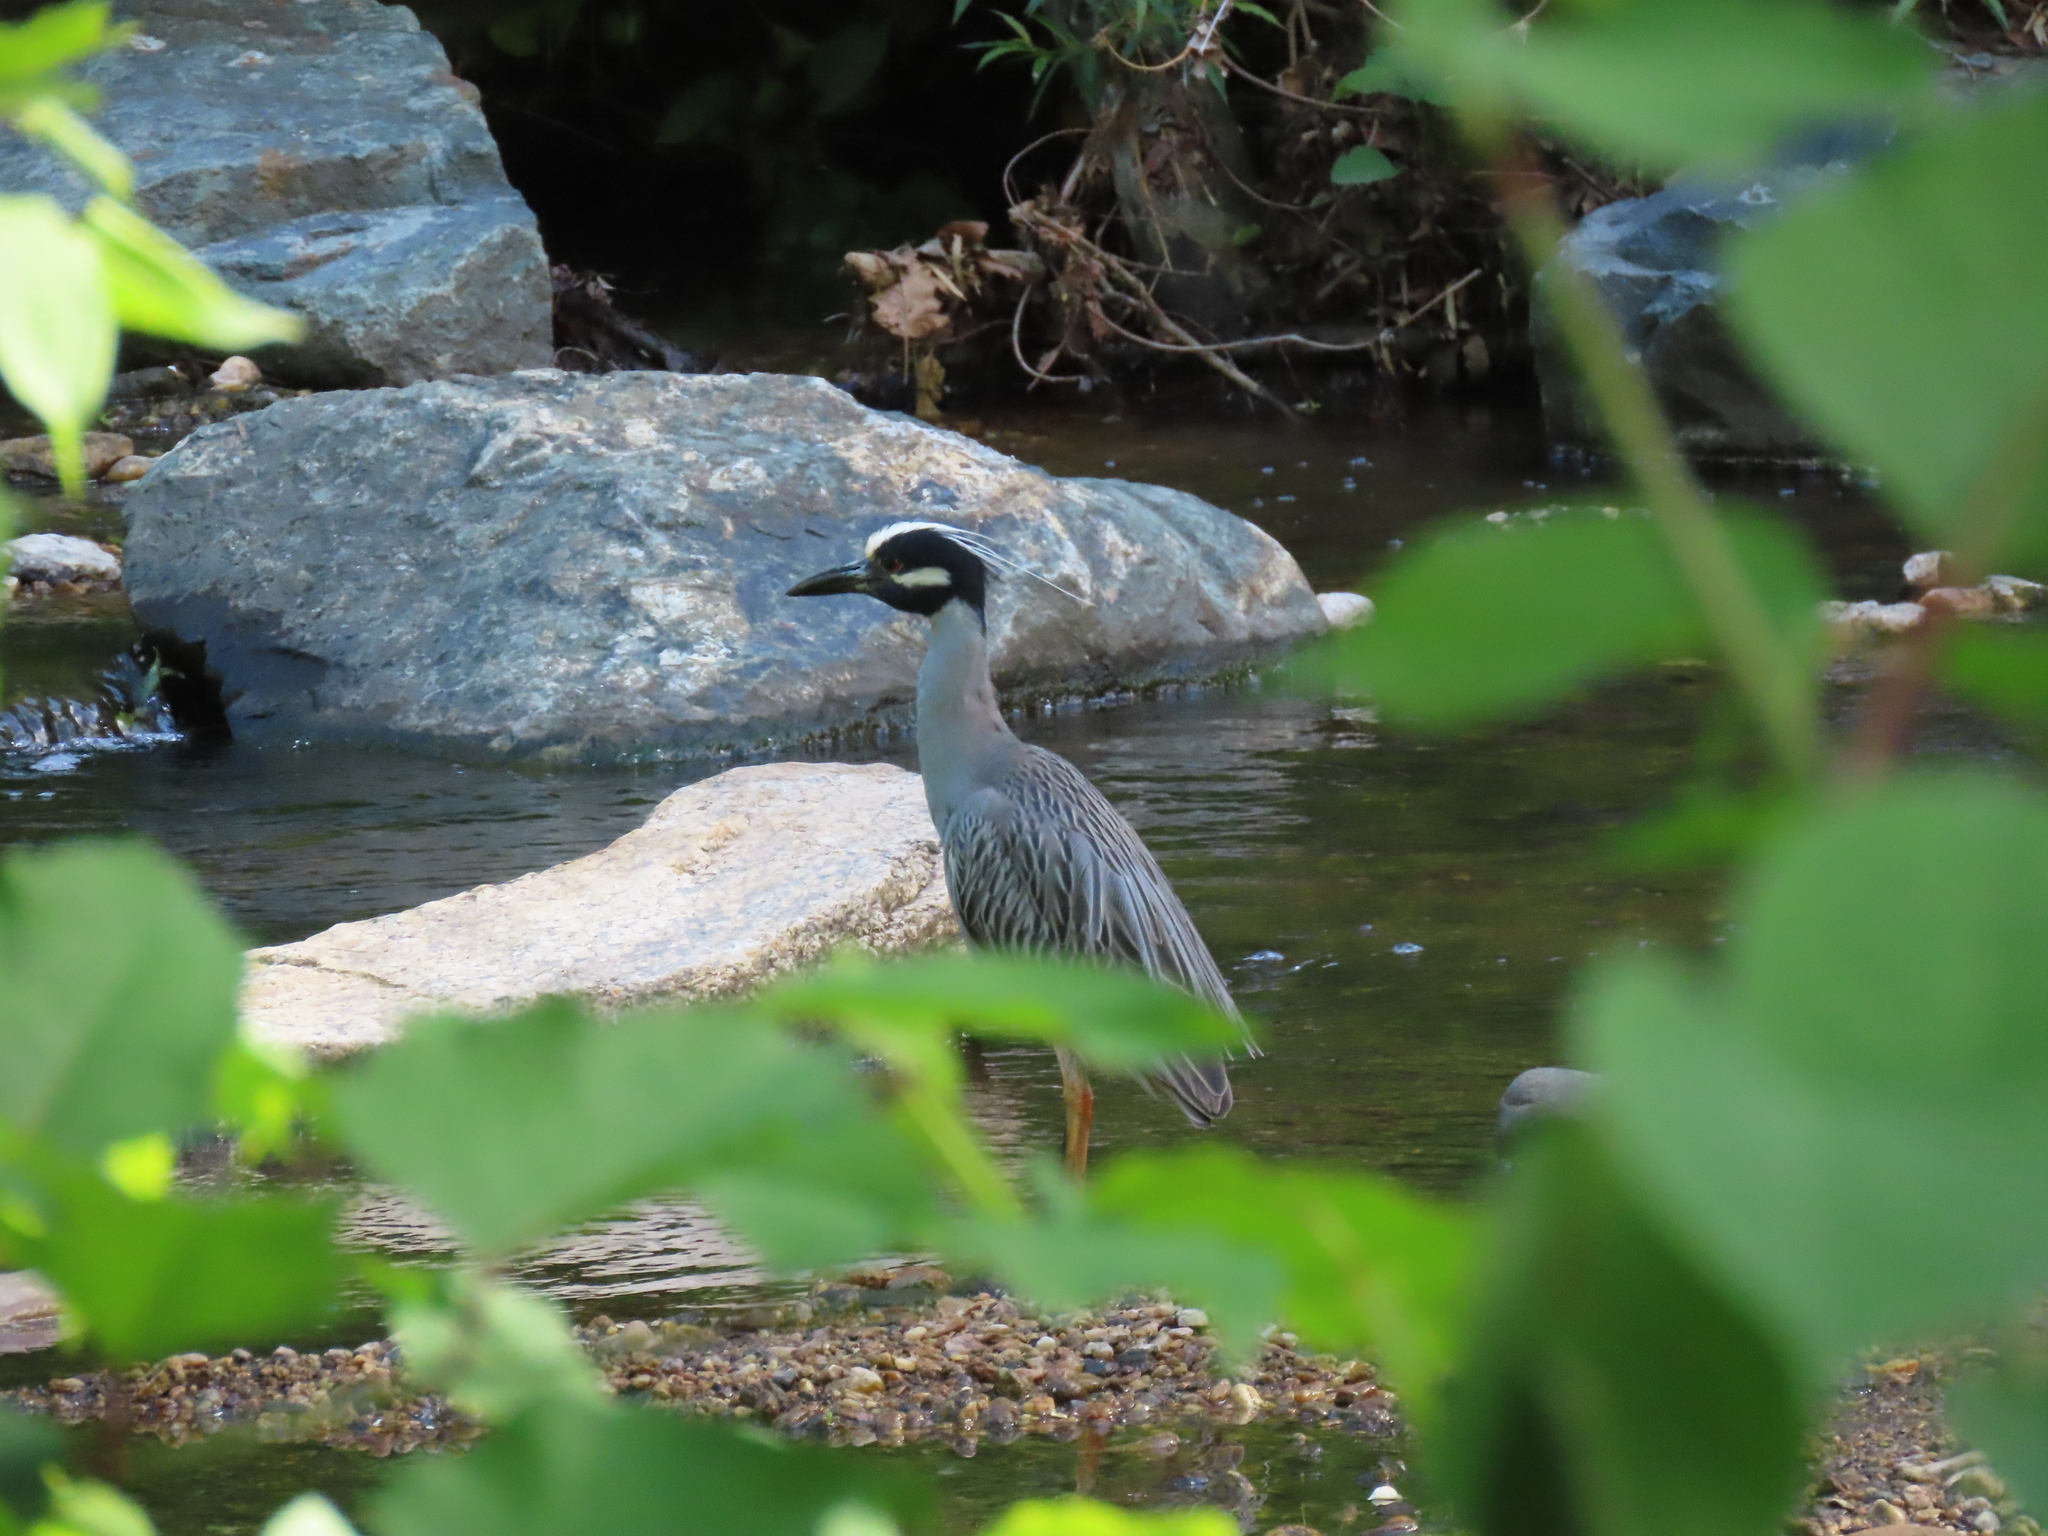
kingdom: Animalia
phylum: Chordata
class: Aves
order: Pelecaniformes
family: Ardeidae
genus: Nyctanassa
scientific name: Nyctanassa violacea
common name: Yellow-crowned night heron
